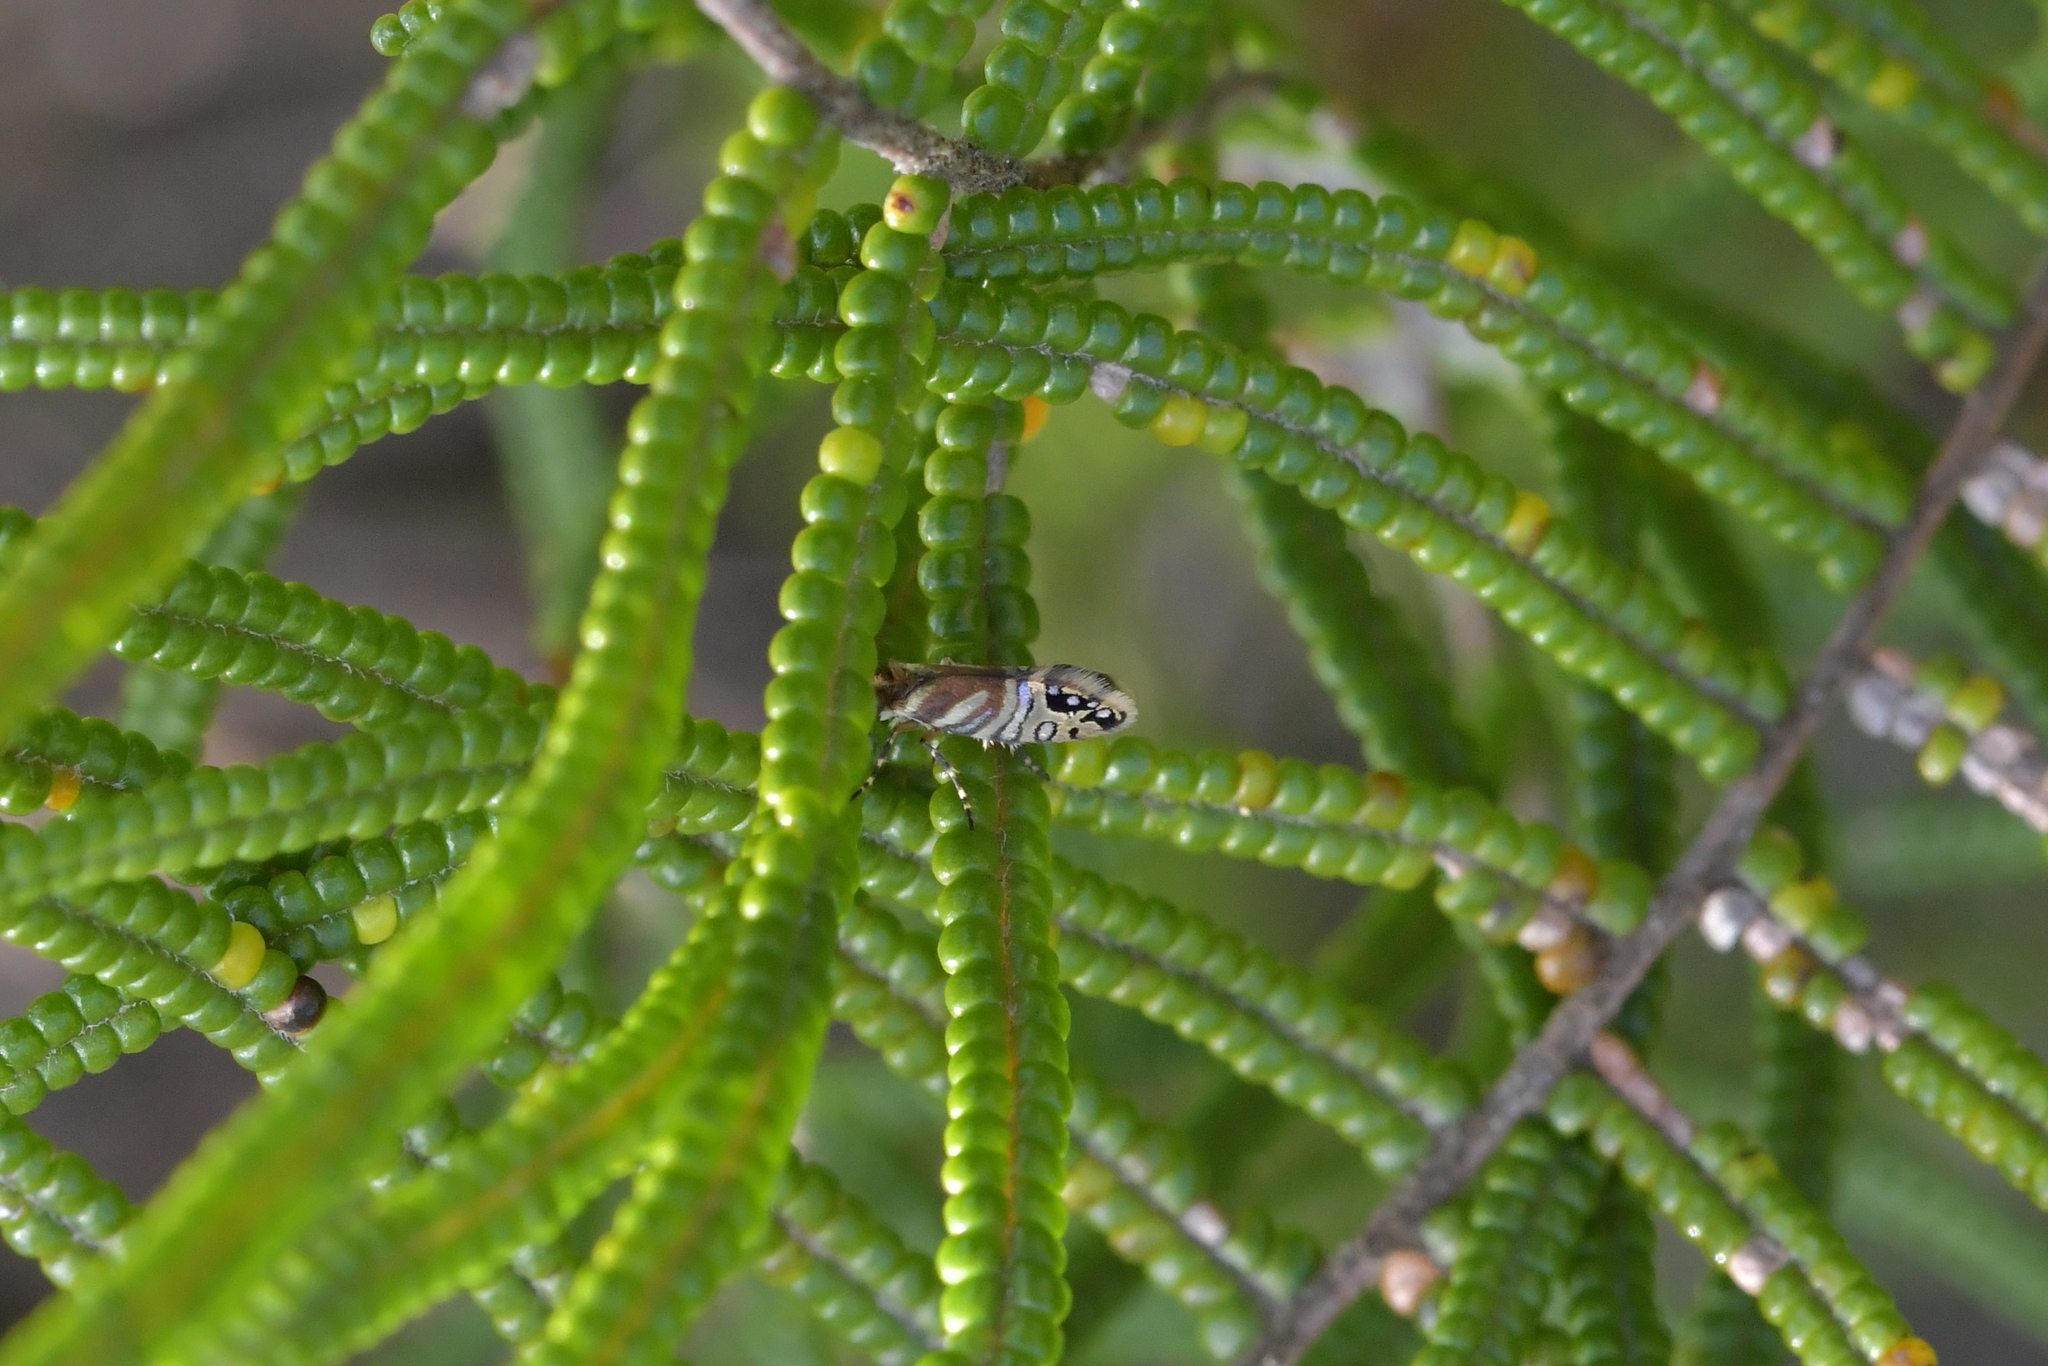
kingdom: Animalia
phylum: Arthropoda
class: Insecta
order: Lepidoptera
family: Micropterigidae
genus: Sabatinca
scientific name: Sabatinca doroxena
